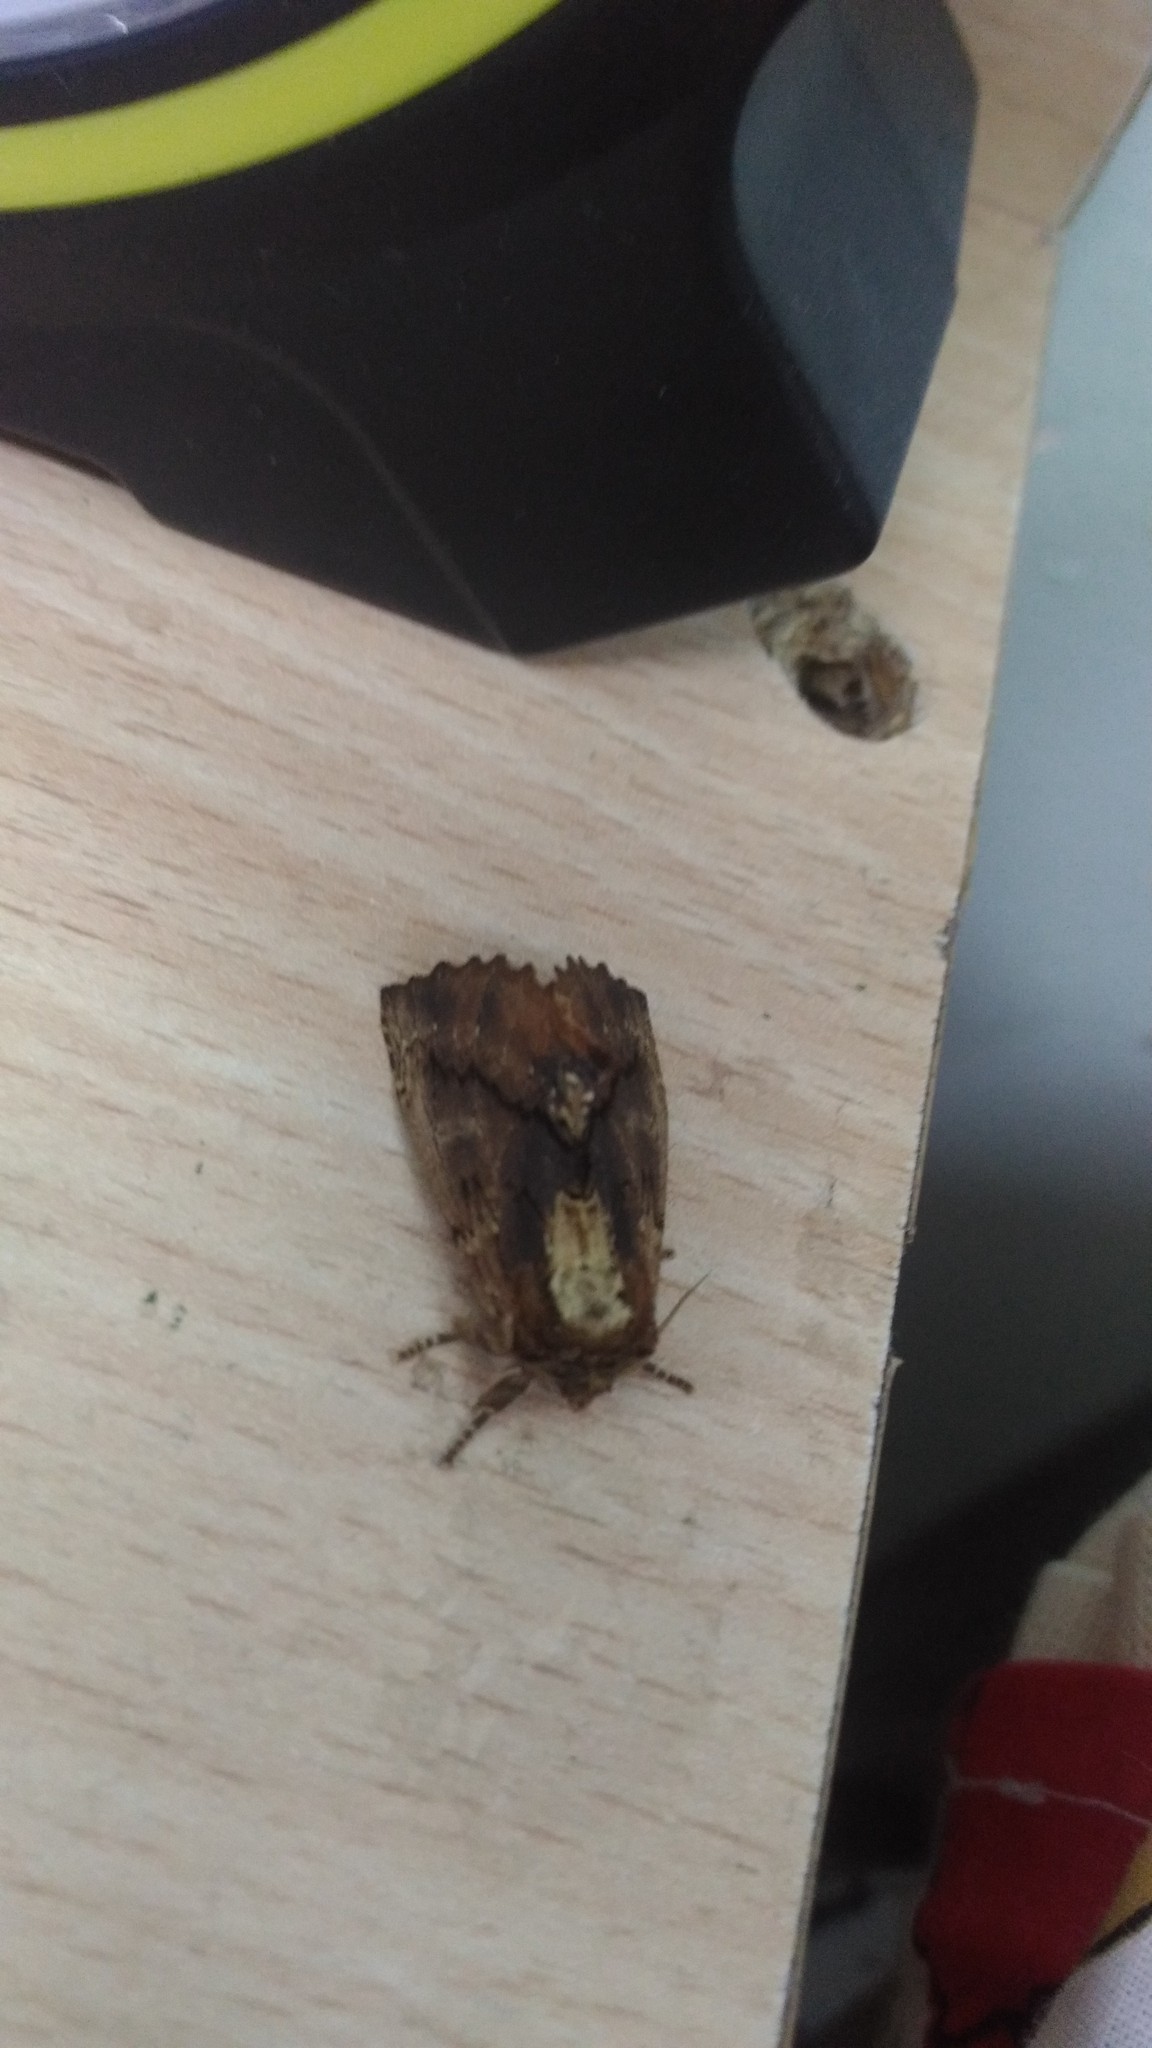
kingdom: Animalia
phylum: Arthropoda
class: Insecta
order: Lepidoptera
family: Notodontidae
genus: Ptilodon
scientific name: Ptilodon capucina
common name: Coxcomb prominent
